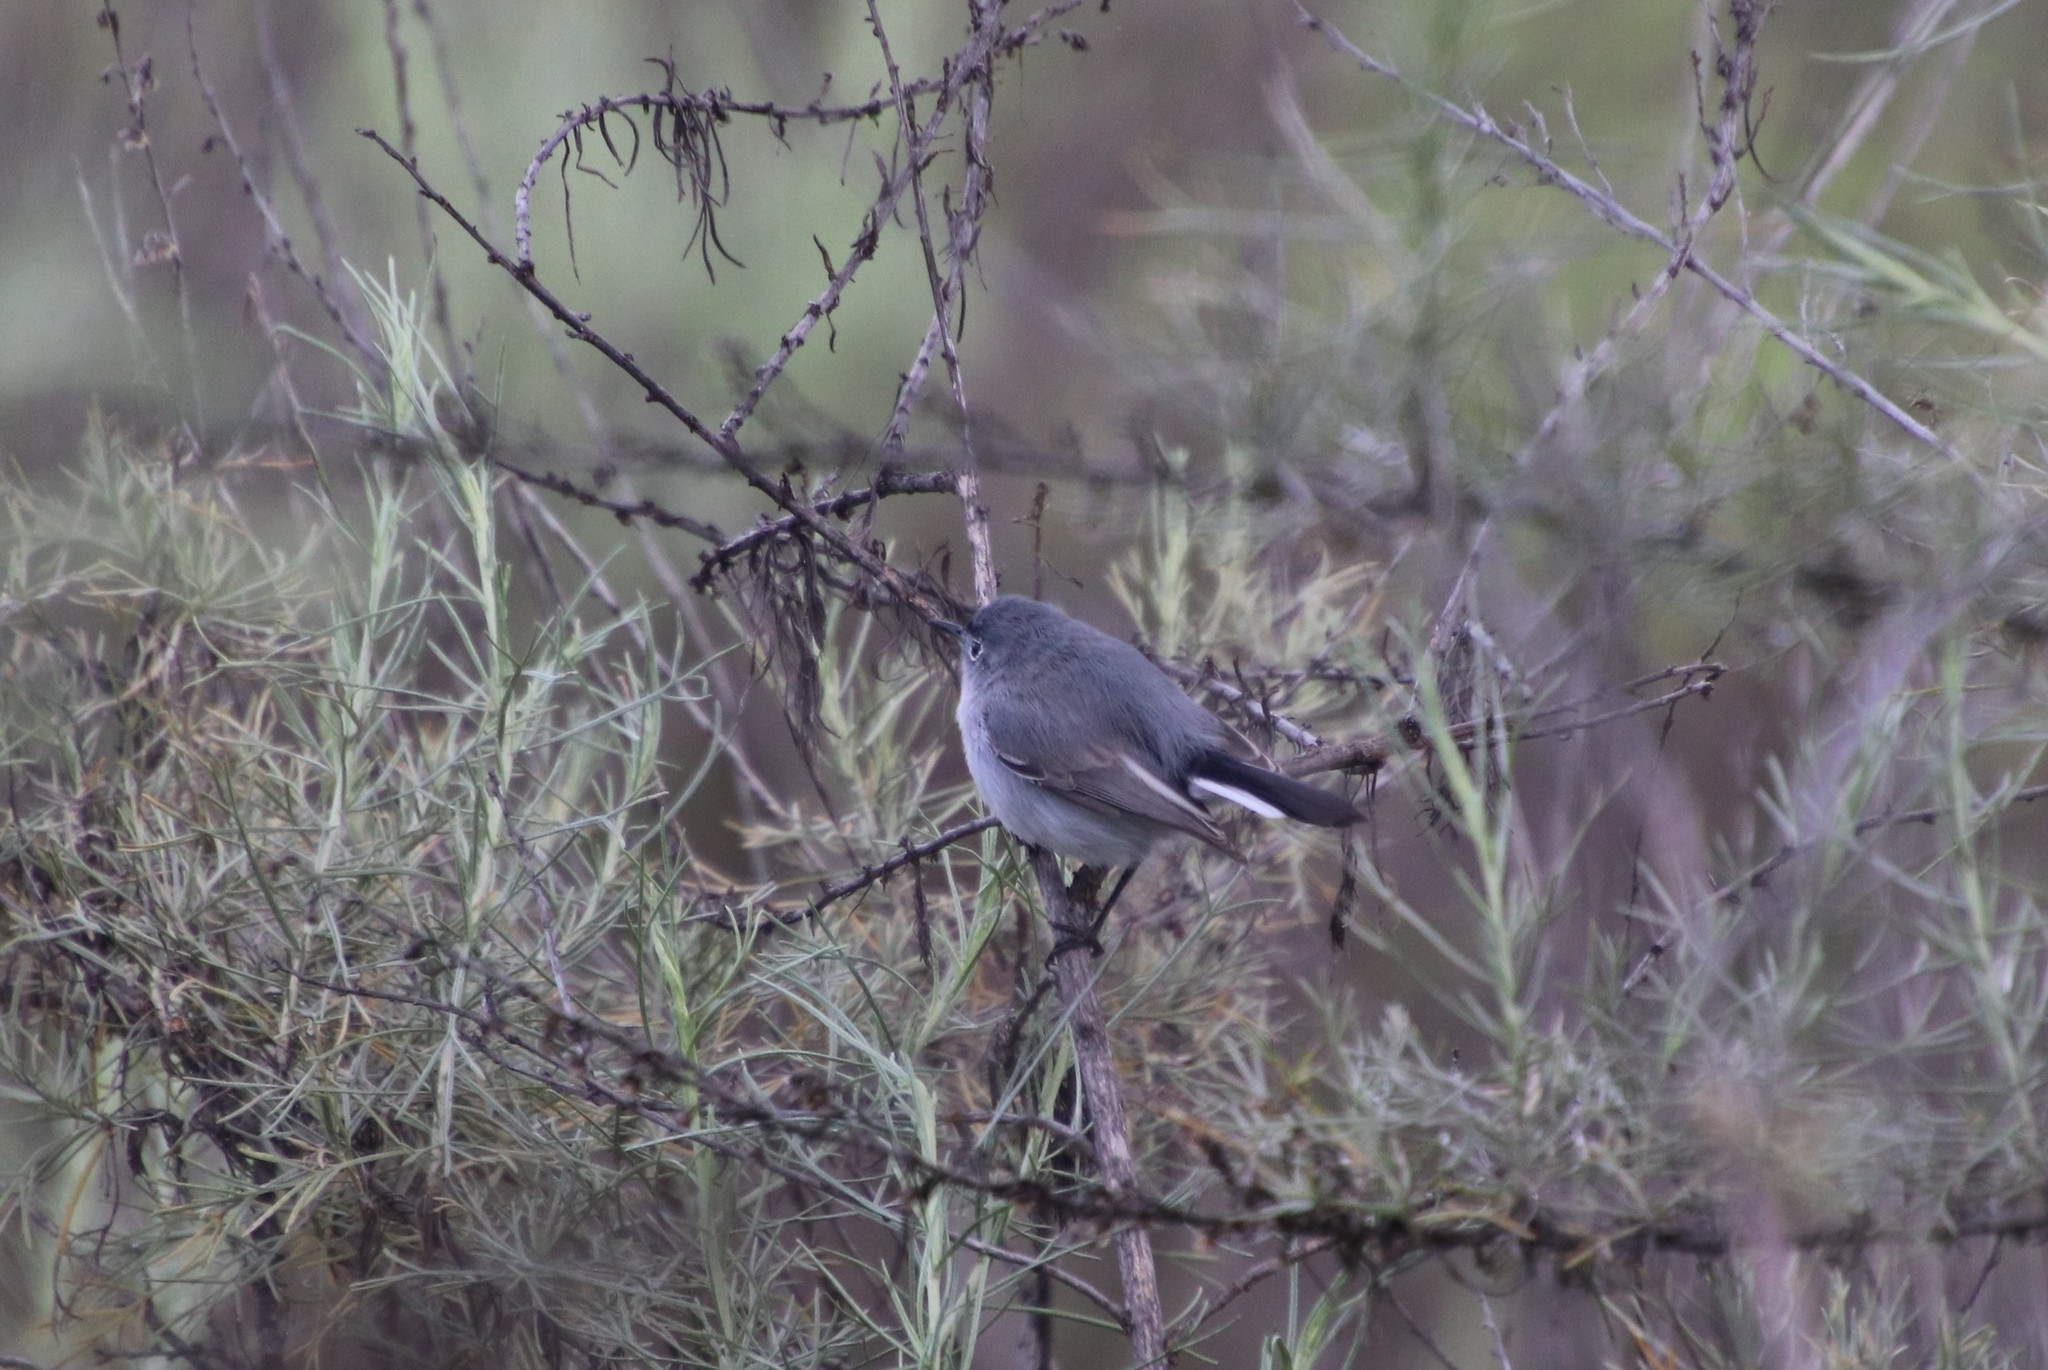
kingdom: Animalia
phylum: Chordata
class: Aves
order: Passeriformes
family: Polioptilidae
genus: Polioptila
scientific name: Polioptila caerulea
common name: Blue-gray gnatcatcher
